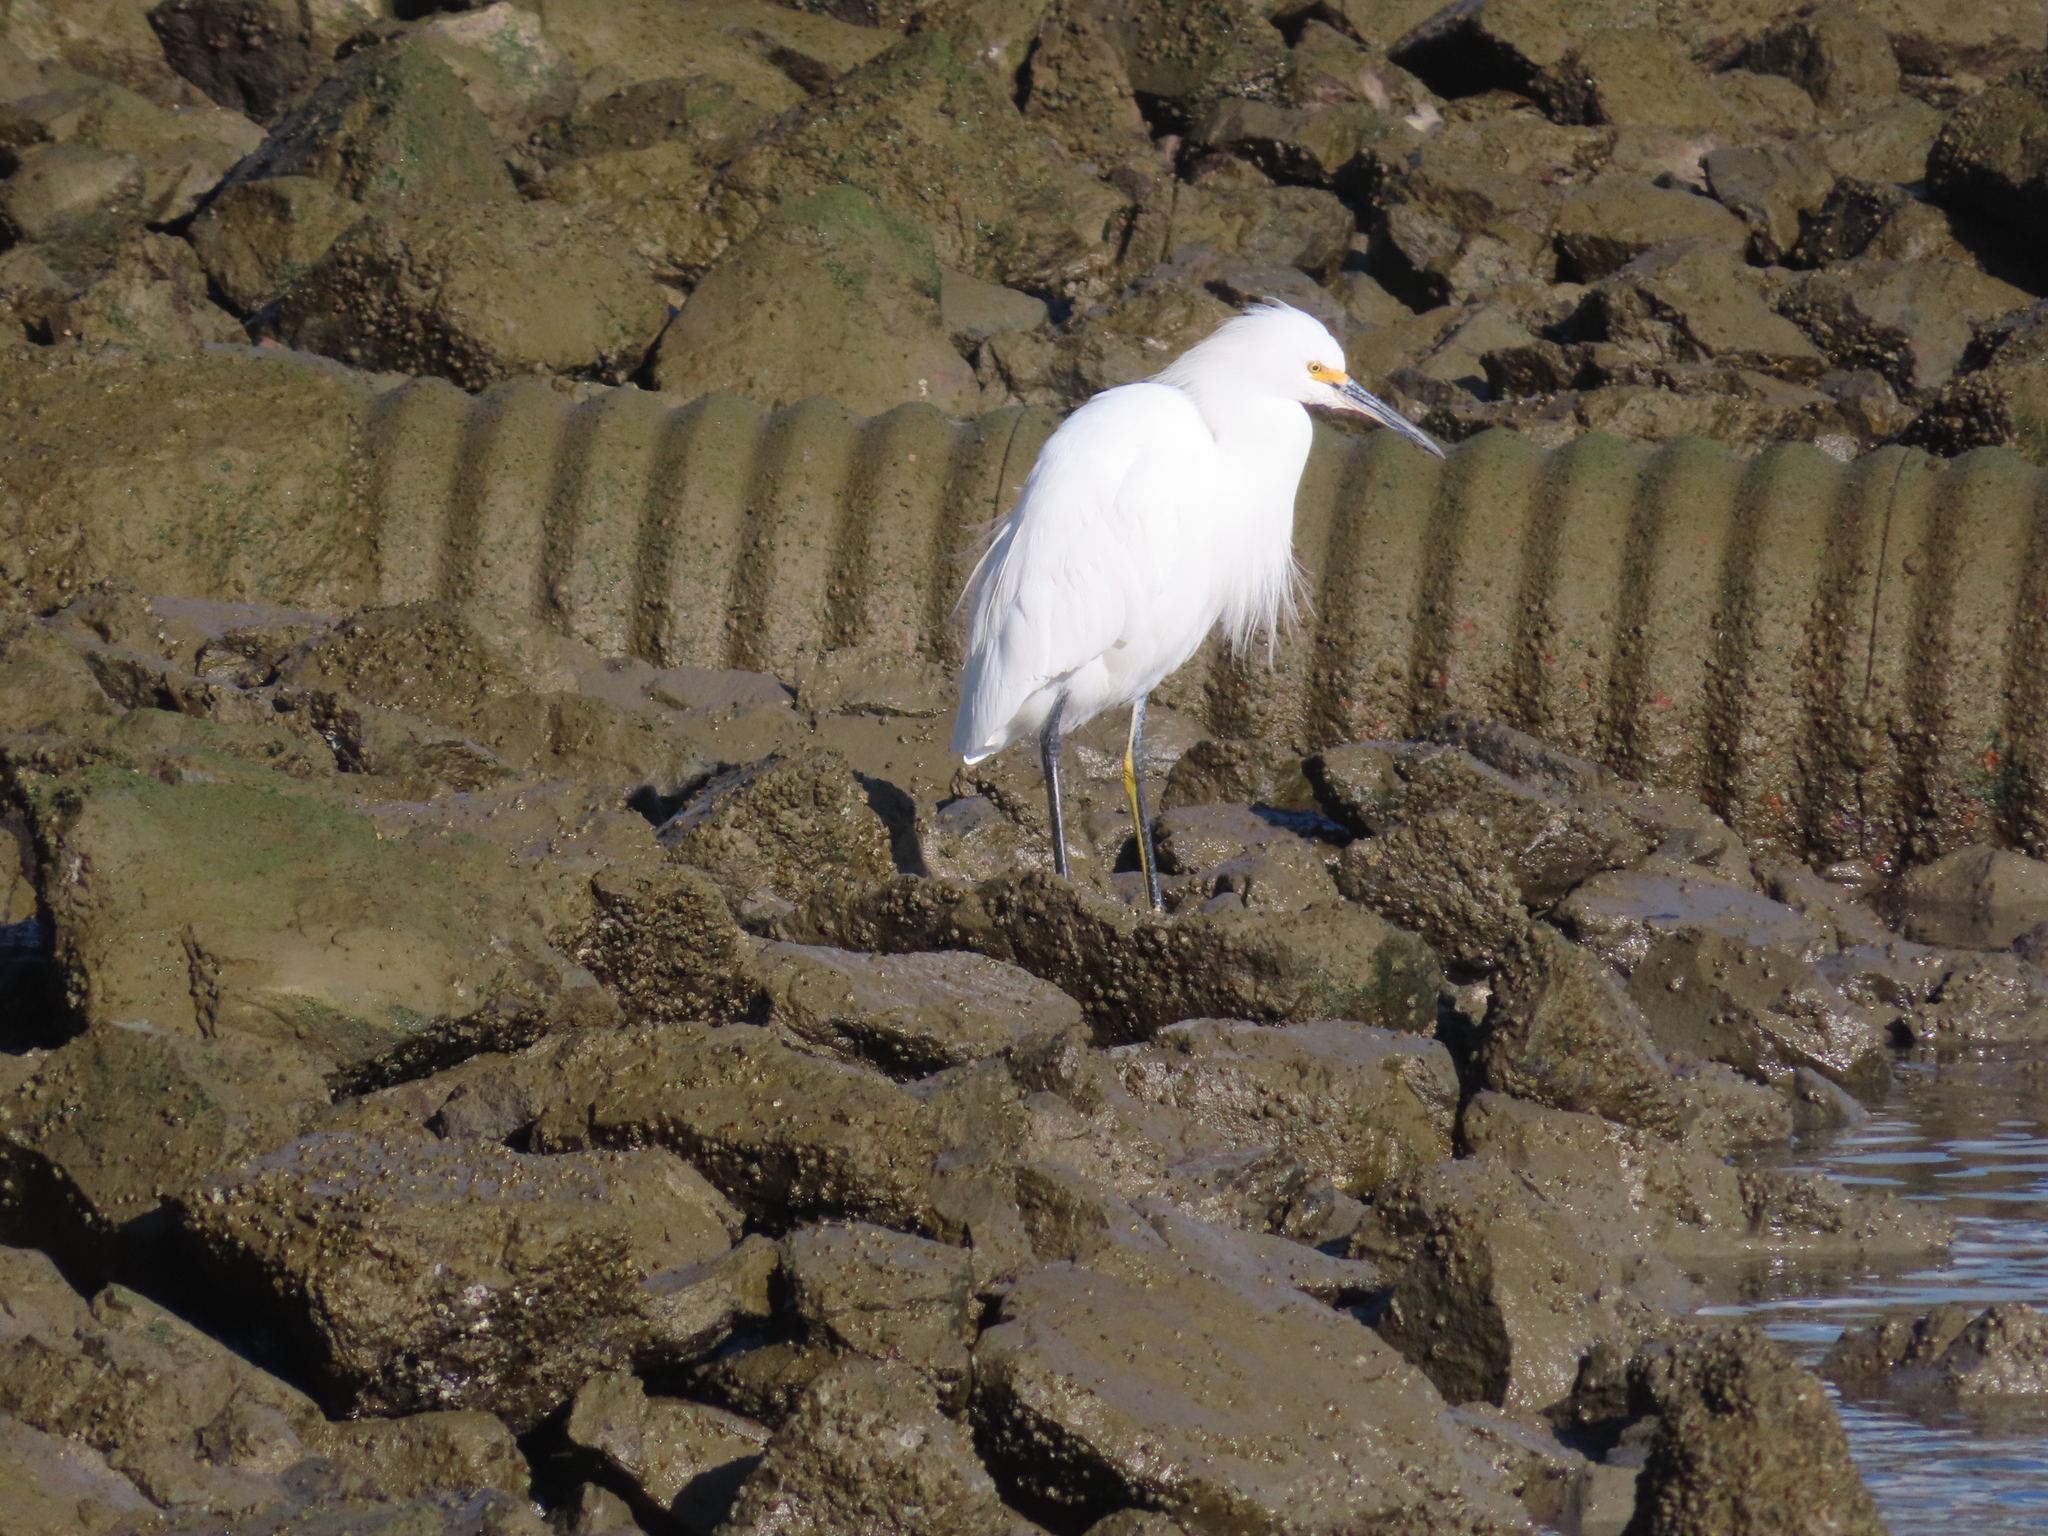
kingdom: Animalia
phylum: Chordata
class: Aves
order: Pelecaniformes
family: Ardeidae
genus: Egretta
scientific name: Egretta thula
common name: Snowy egret
